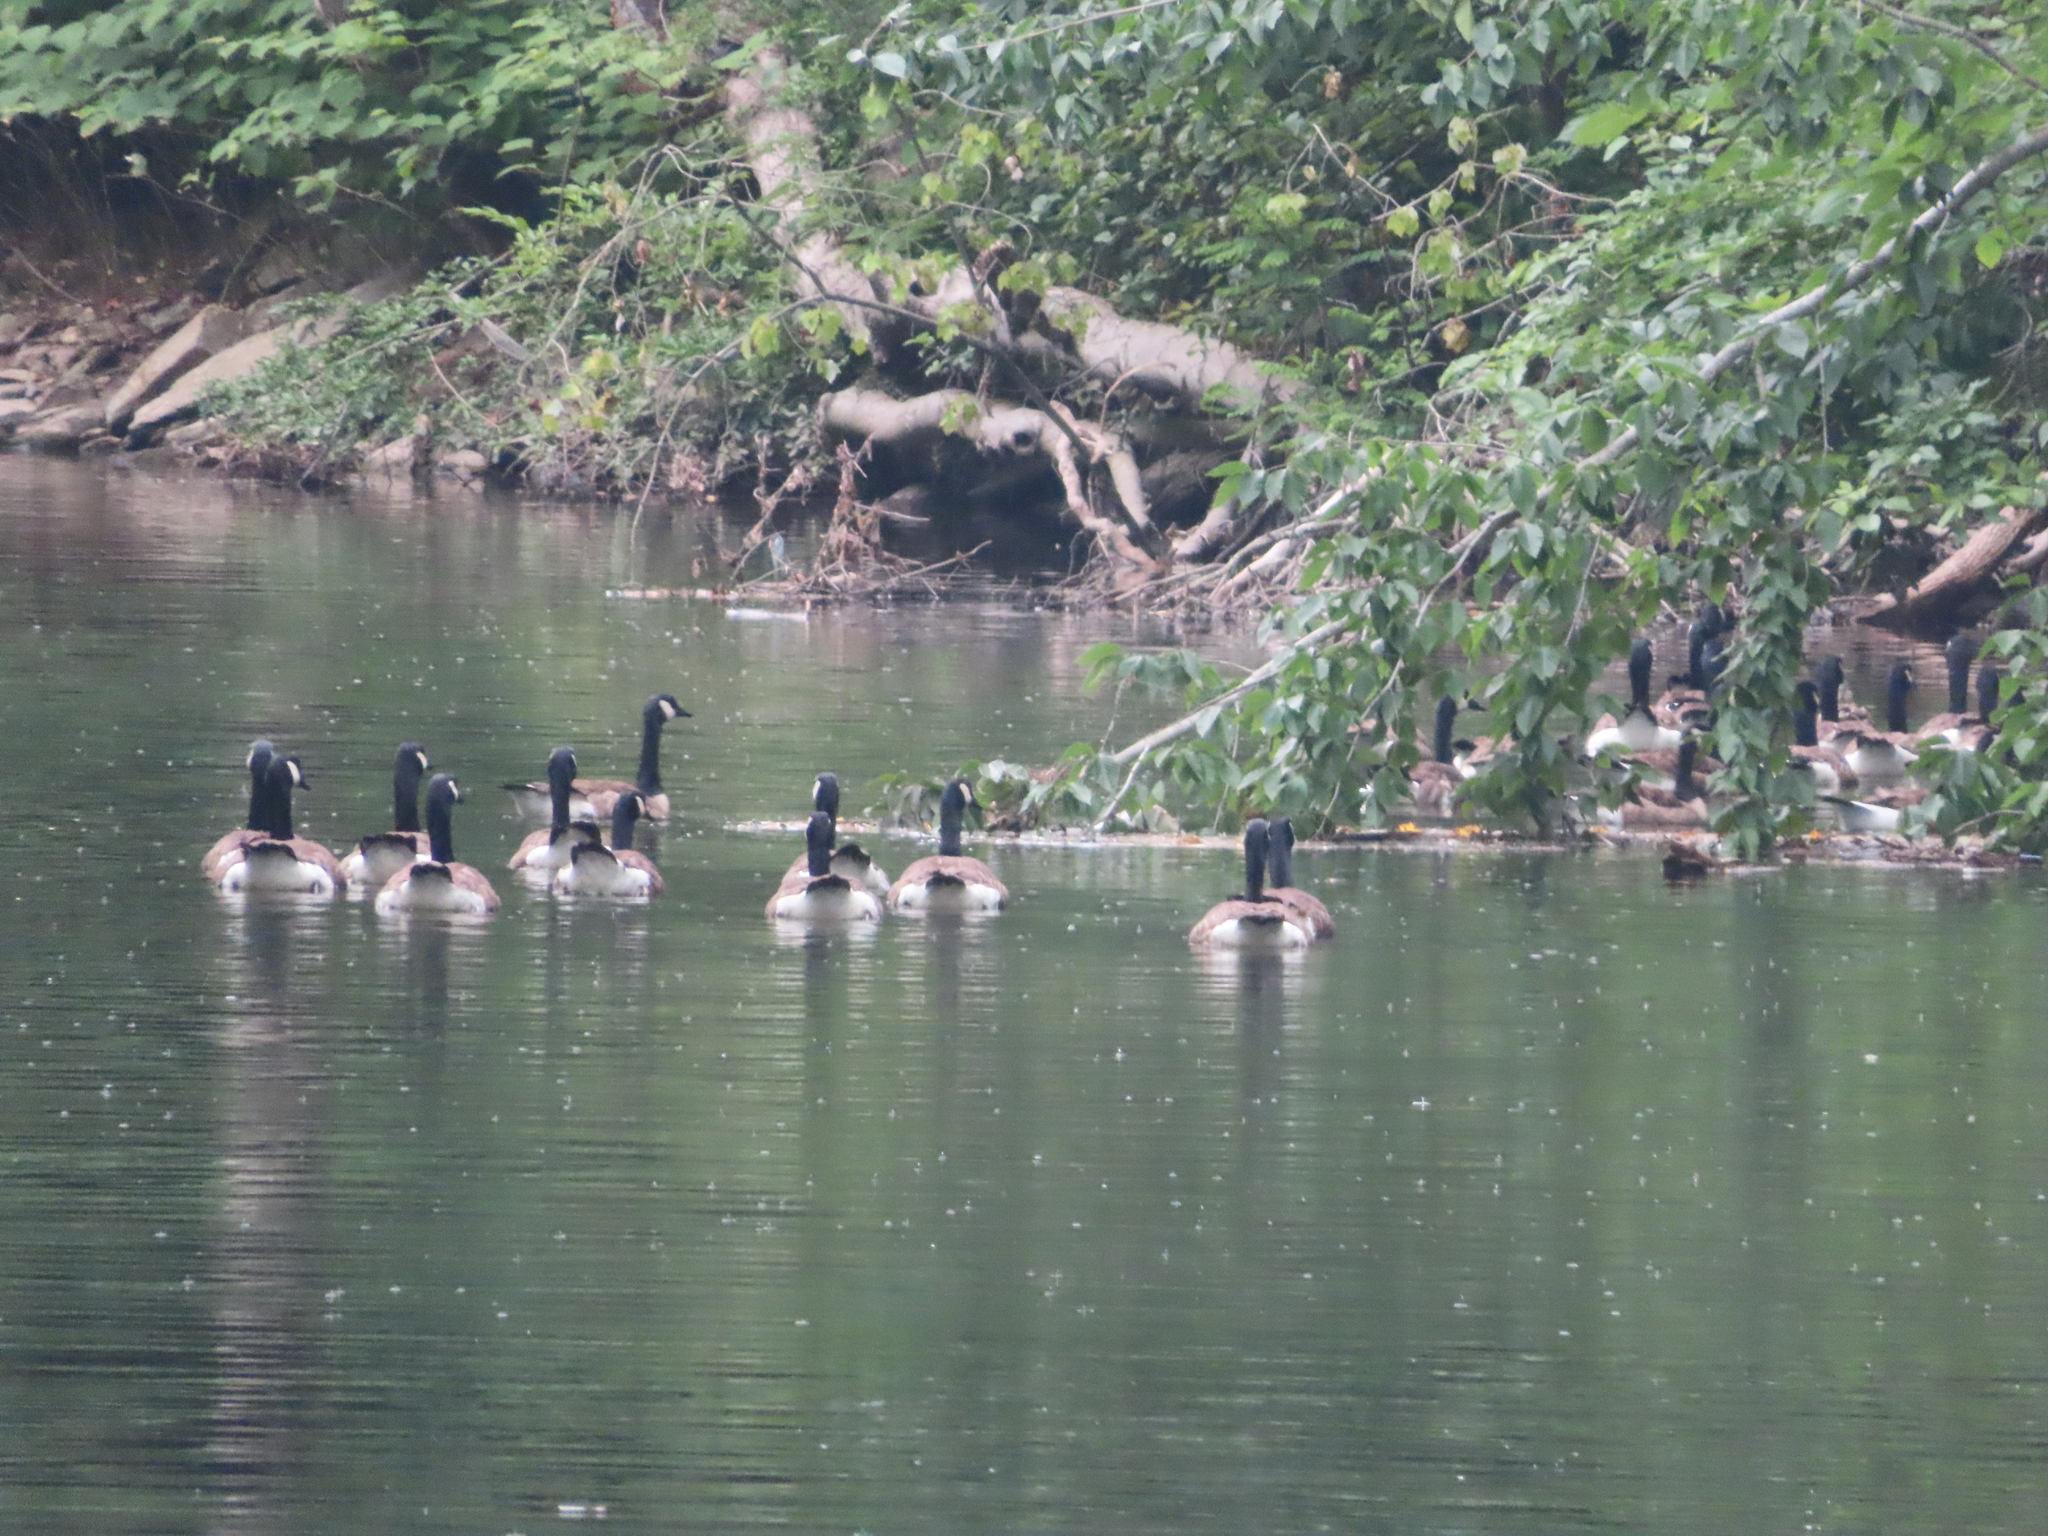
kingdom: Animalia
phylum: Chordata
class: Aves
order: Anseriformes
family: Anatidae
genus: Branta
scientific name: Branta canadensis
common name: Canada goose
